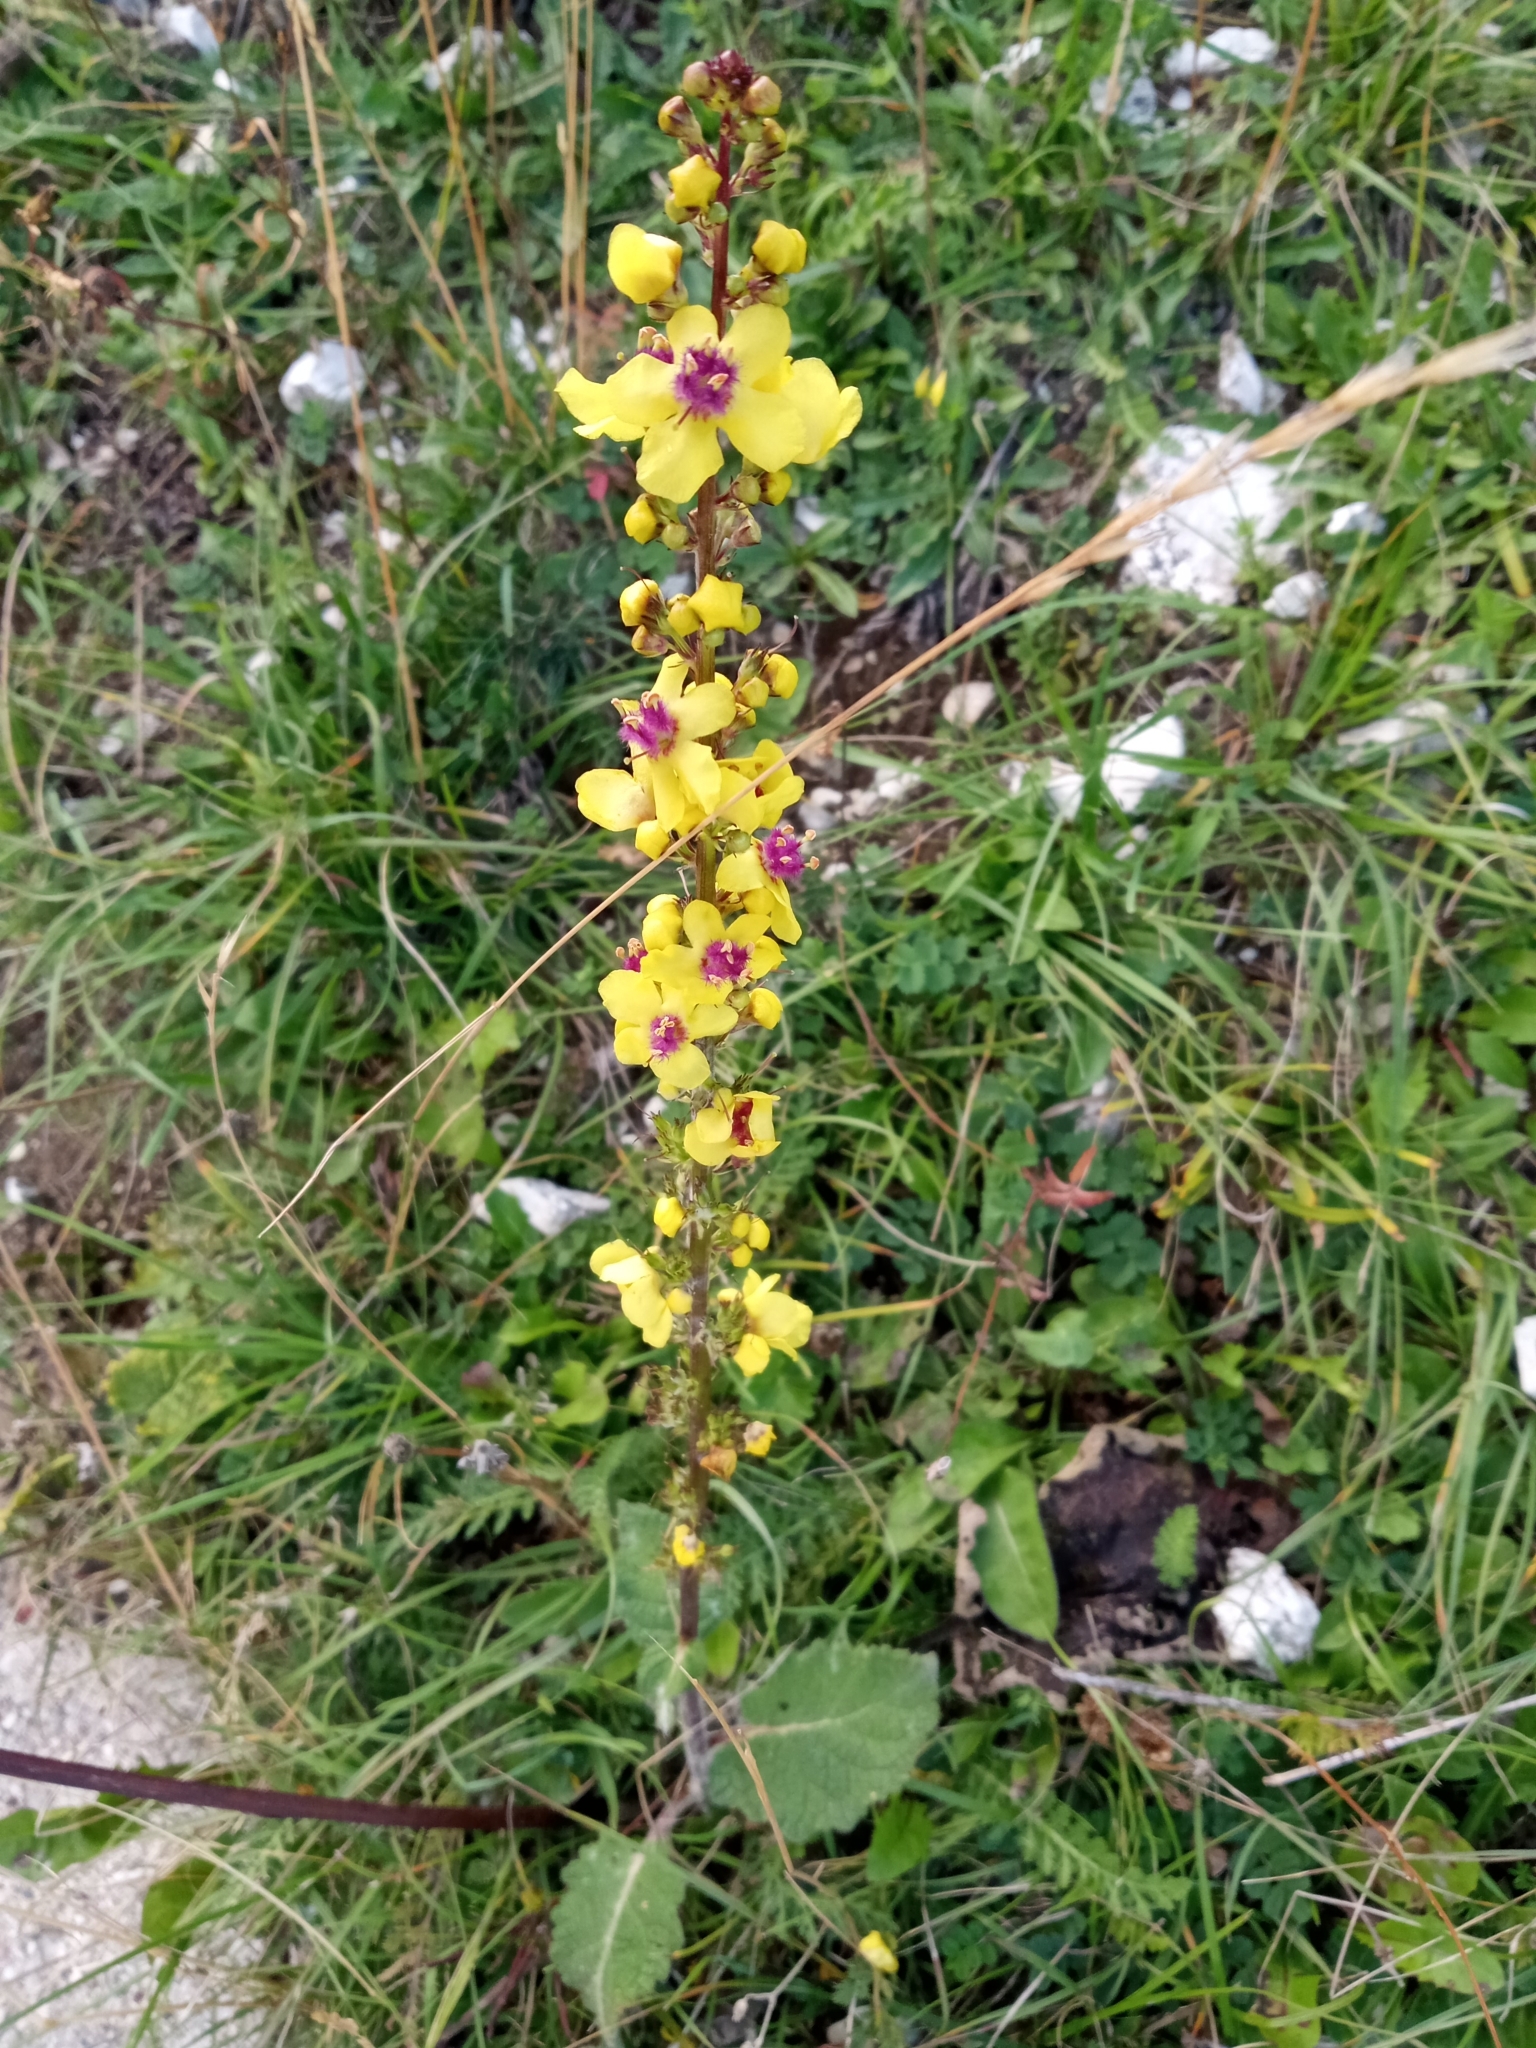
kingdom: Plantae
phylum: Tracheophyta
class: Magnoliopsida
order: Lamiales
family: Scrophulariaceae
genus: Verbascum
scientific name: Verbascum nigrum
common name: Dark mullein
